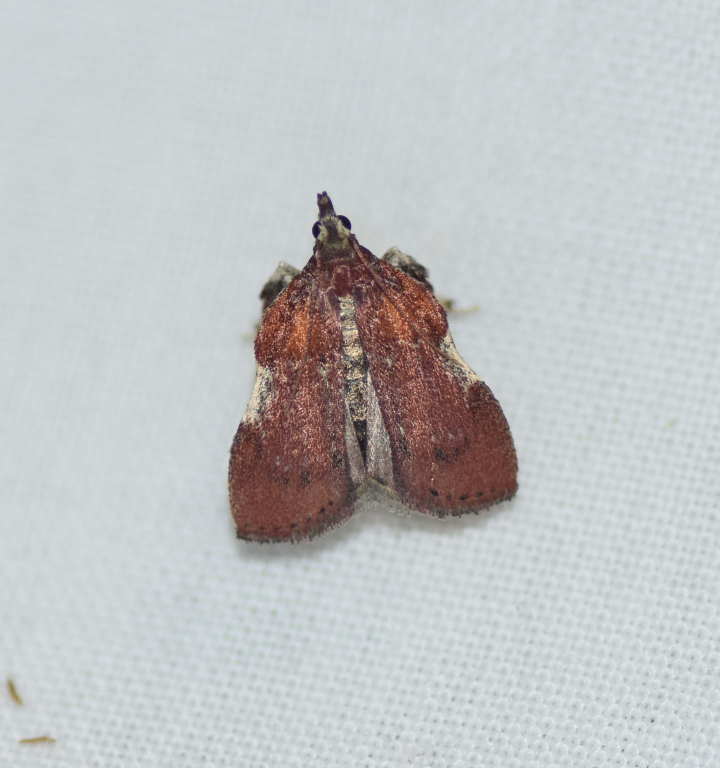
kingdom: Animalia
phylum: Arthropoda
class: Insecta
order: Lepidoptera
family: Pyralidae
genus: Galasa
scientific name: Galasa nigrinodis
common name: Boxwood leaftier moth
